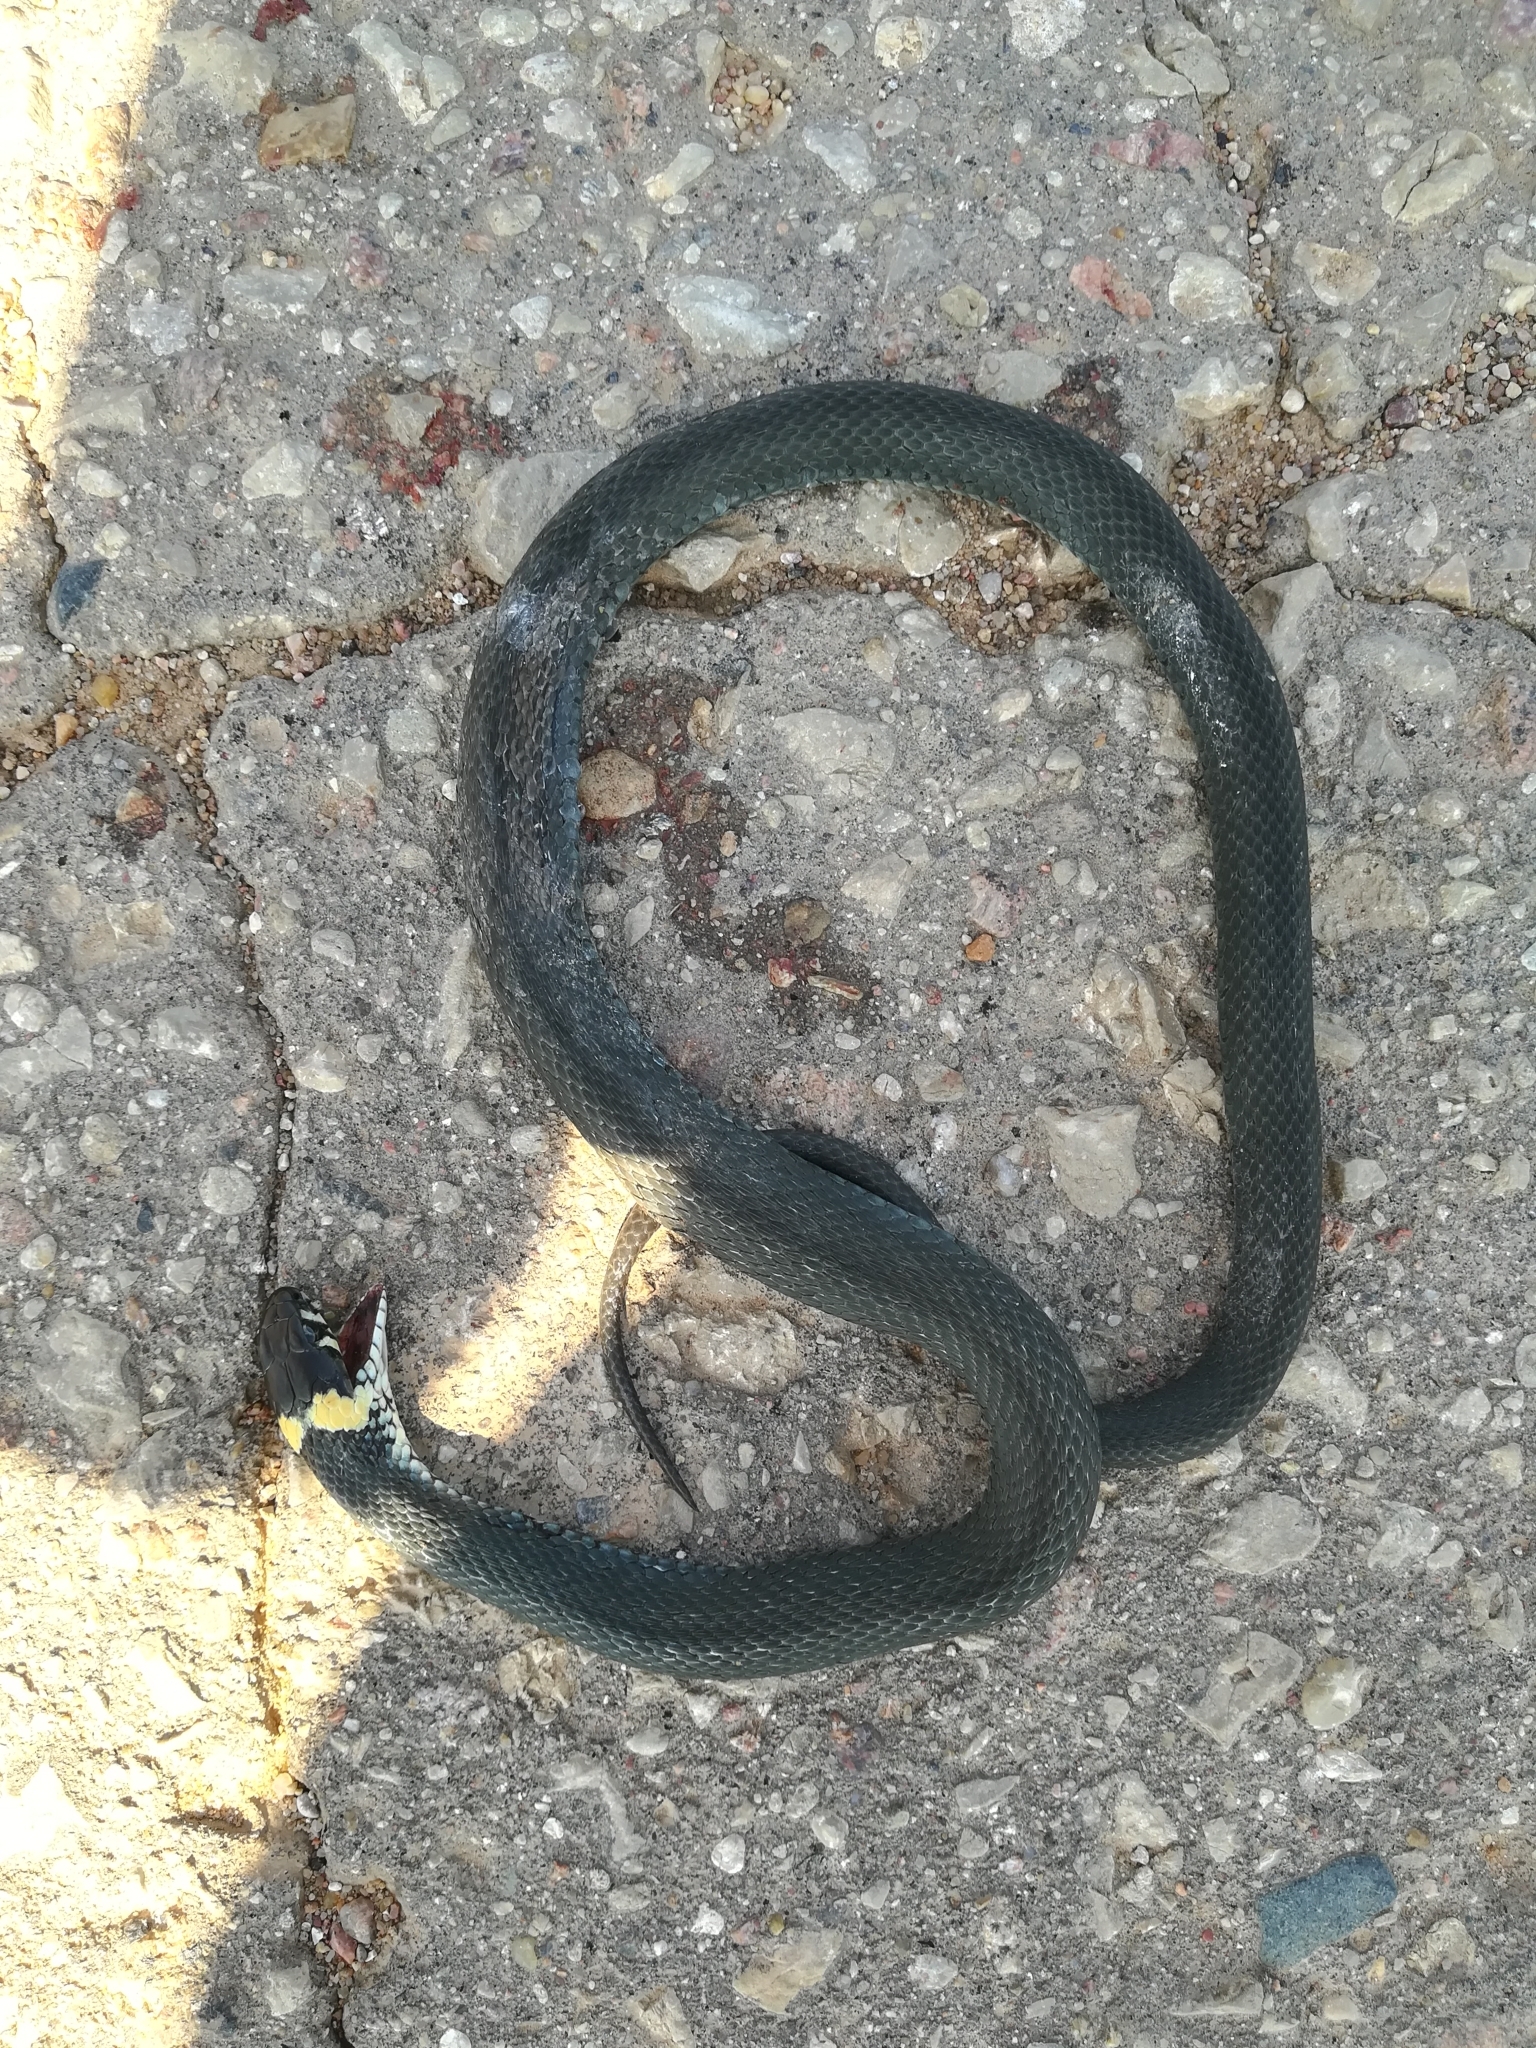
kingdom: Animalia
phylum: Chordata
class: Squamata
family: Colubridae
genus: Natrix
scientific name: Natrix natrix
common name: Grass snake
